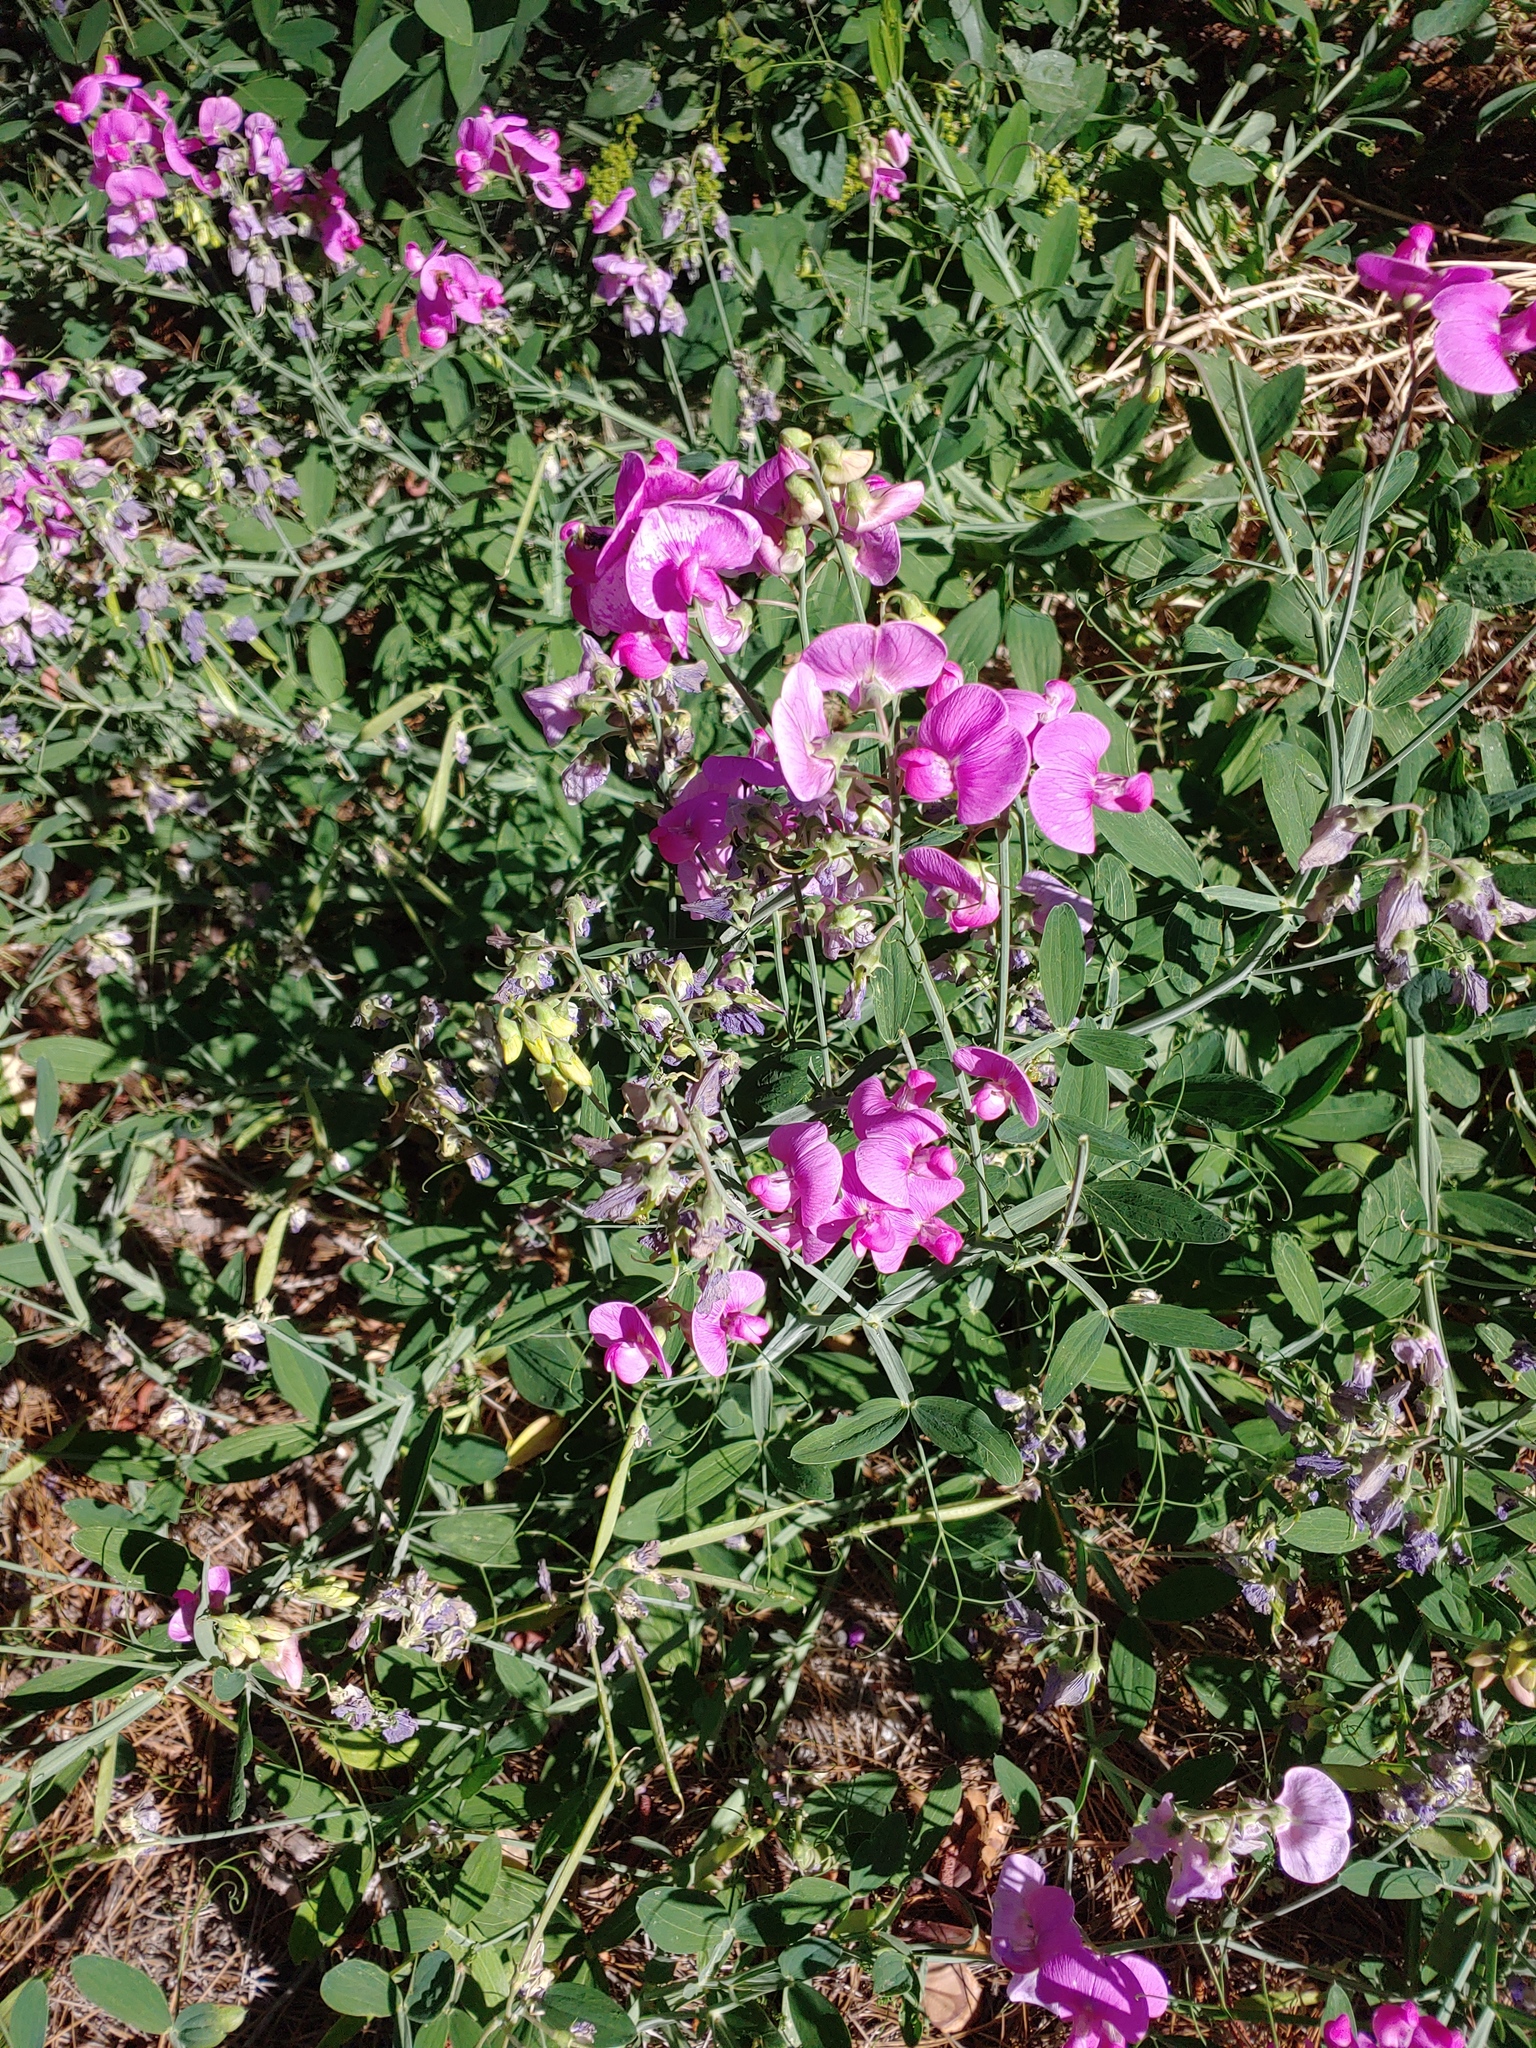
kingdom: Plantae
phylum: Tracheophyta
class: Magnoliopsida
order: Fabales
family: Fabaceae
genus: Lathyrus
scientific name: Lathyrus latifolius
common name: Perennial pea
